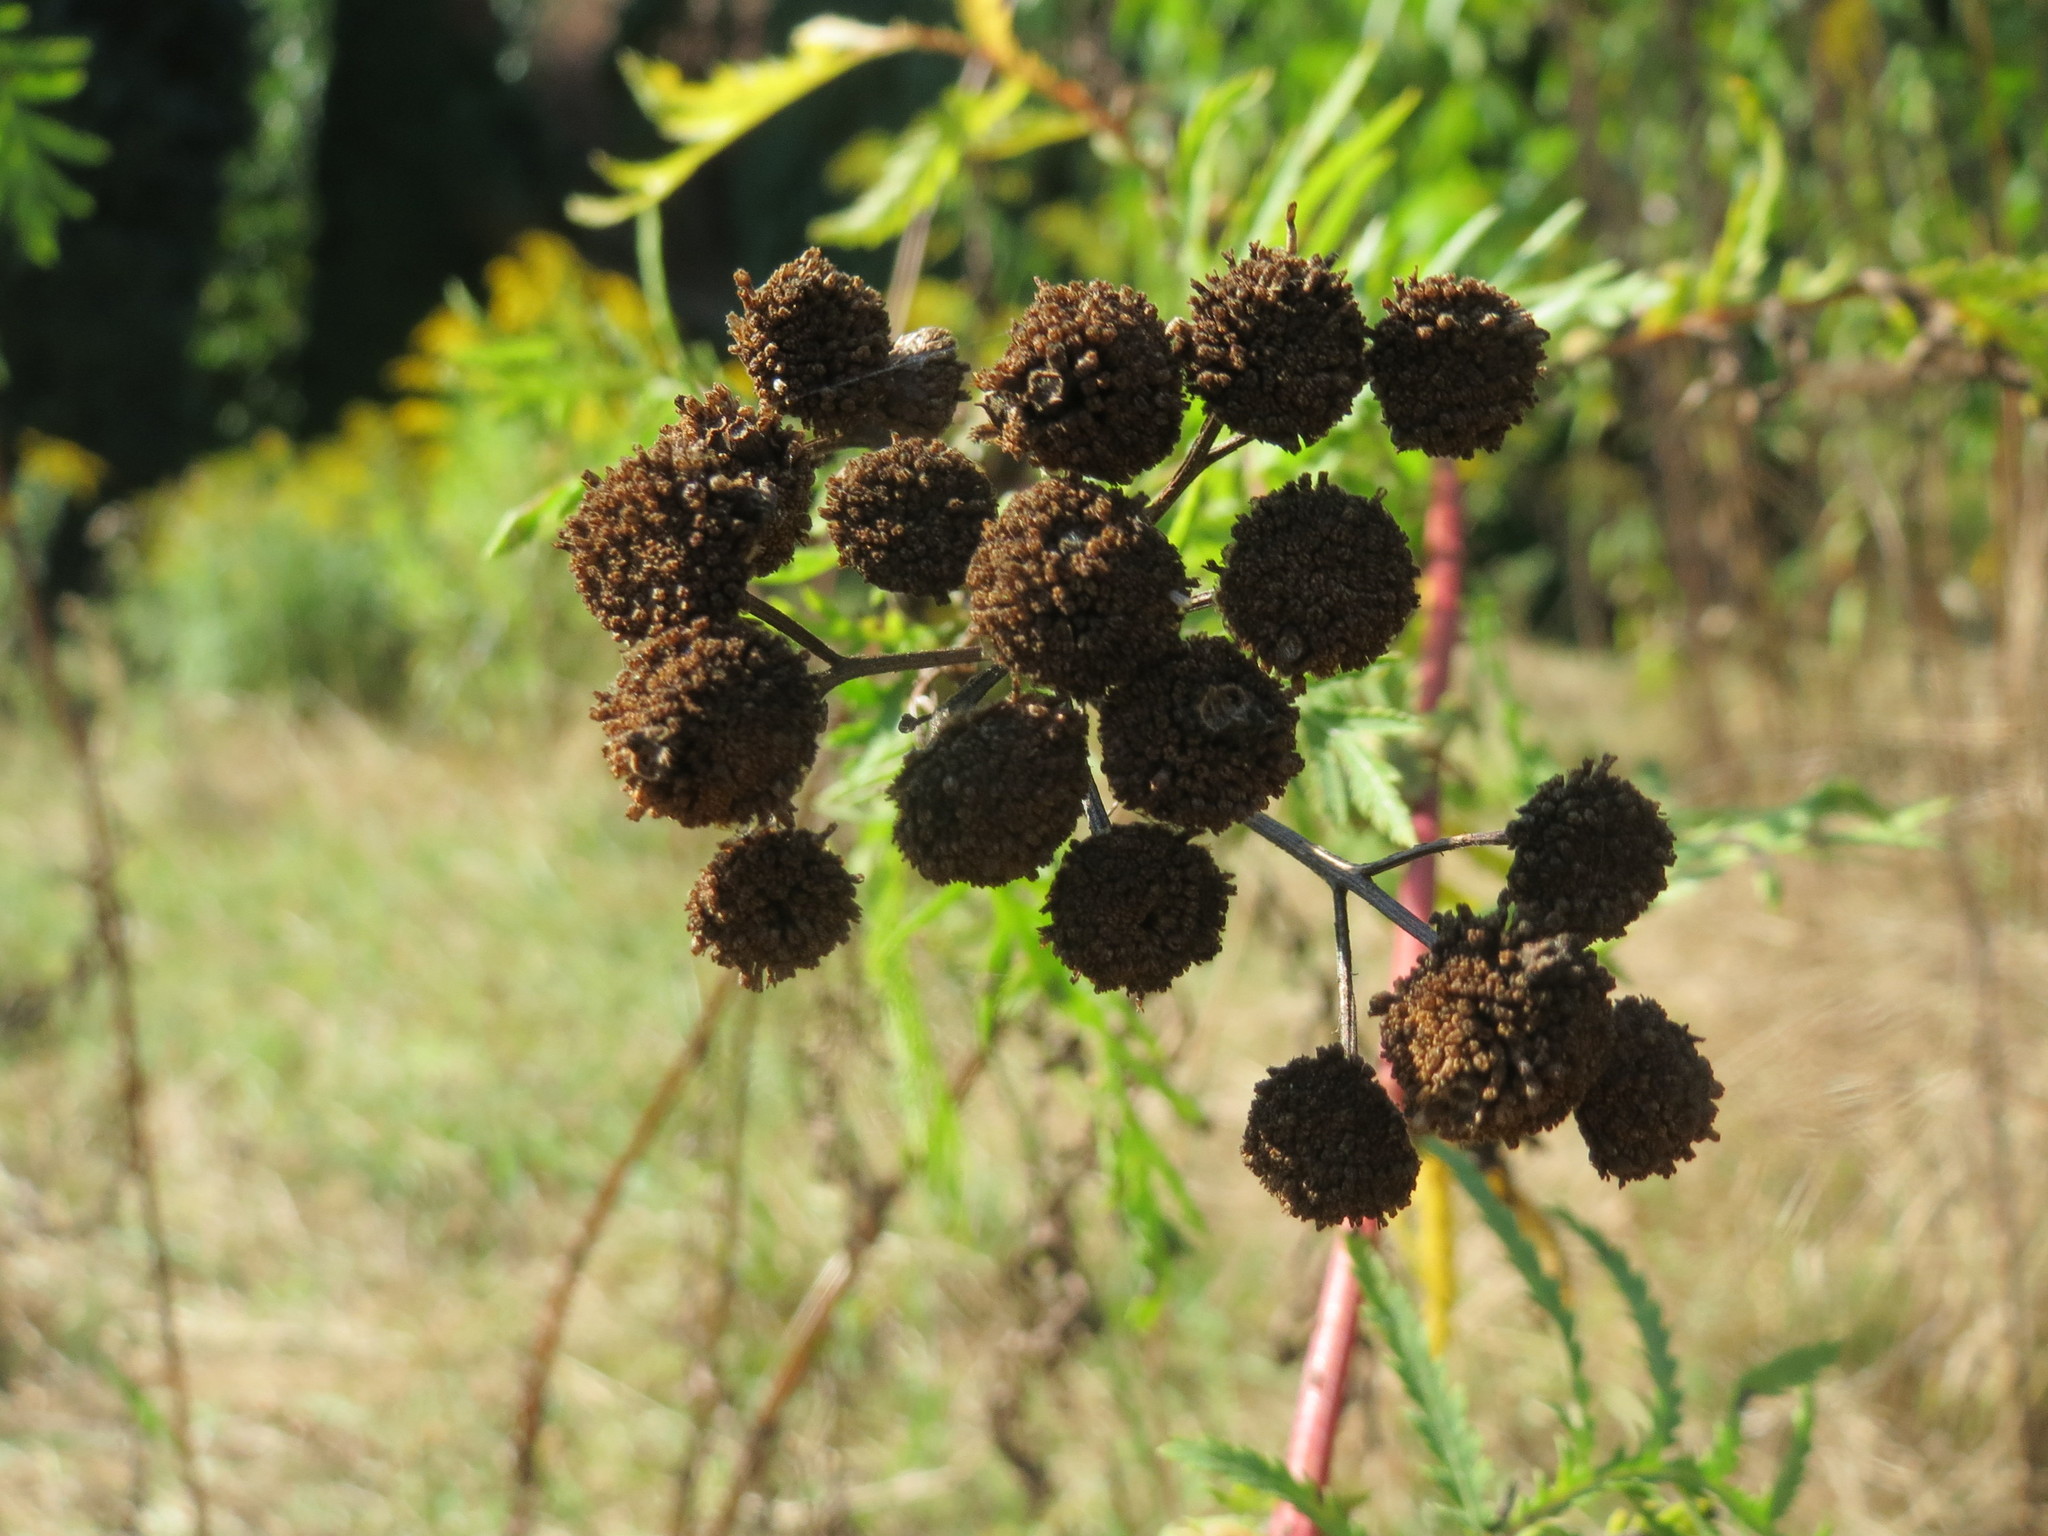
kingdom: Plantae
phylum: Tracheophyta
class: Magnoliopsida
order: Asterales
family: Asteraceae
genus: Tanacetum
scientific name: Tanacetum vulgare
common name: Common tansy
